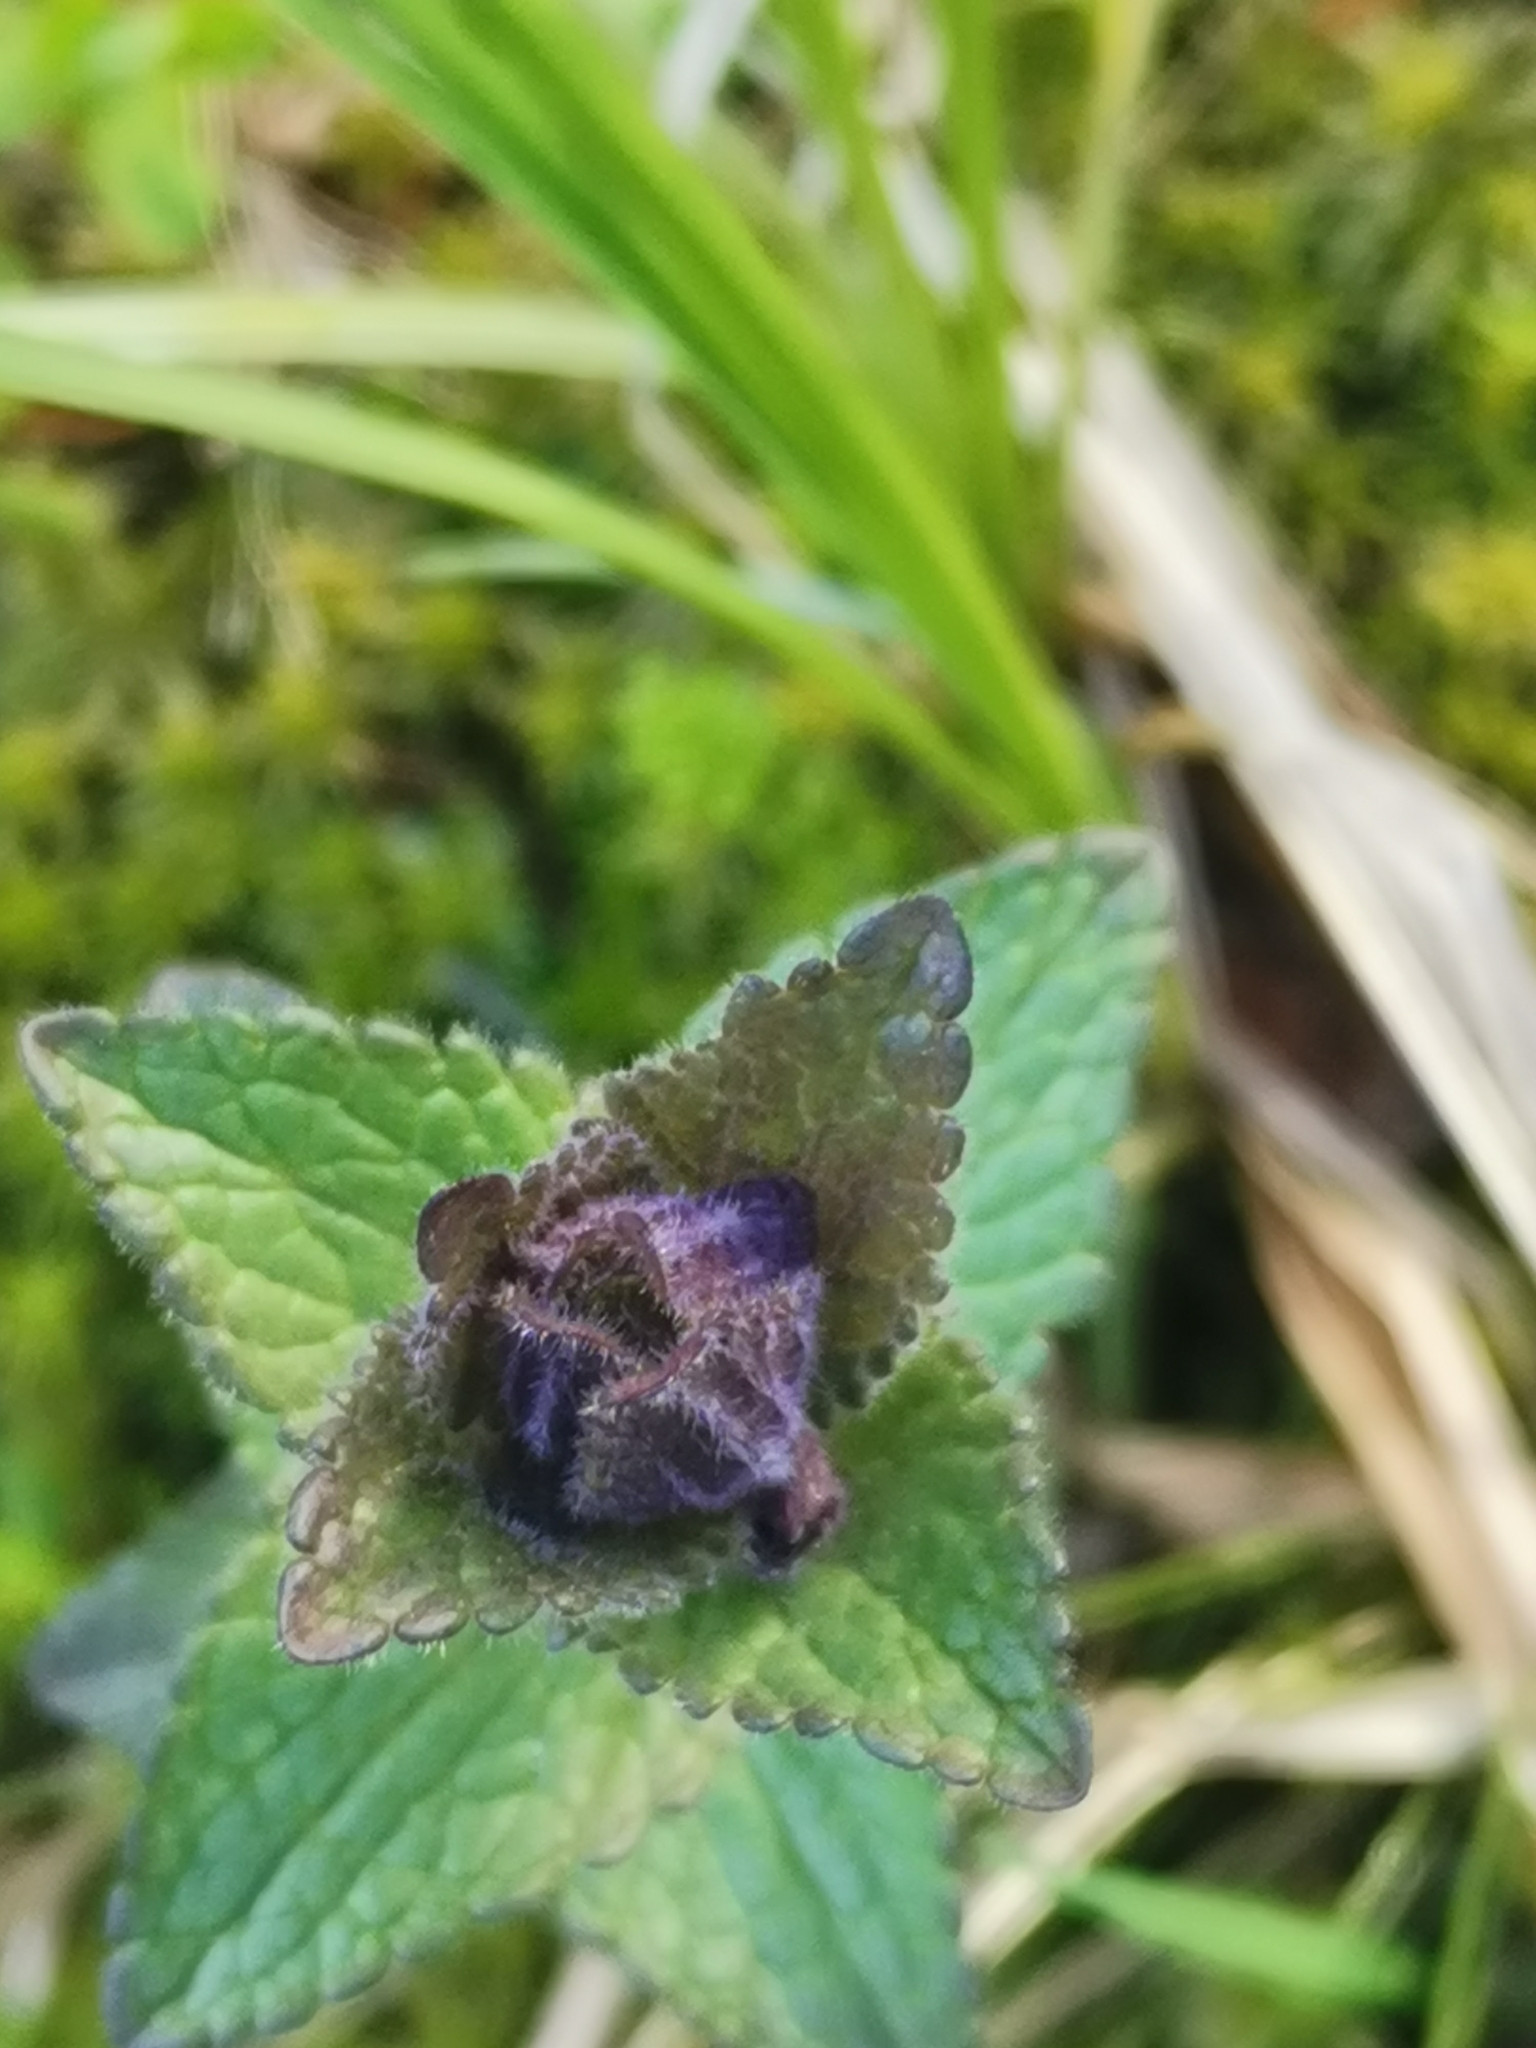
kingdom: Plantae
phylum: Tracheophyta
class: Magnoliopsida
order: Lamiales
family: Orobanchaceae
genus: Bartsia
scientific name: Bartsia alpina
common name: Alpine bartsia
